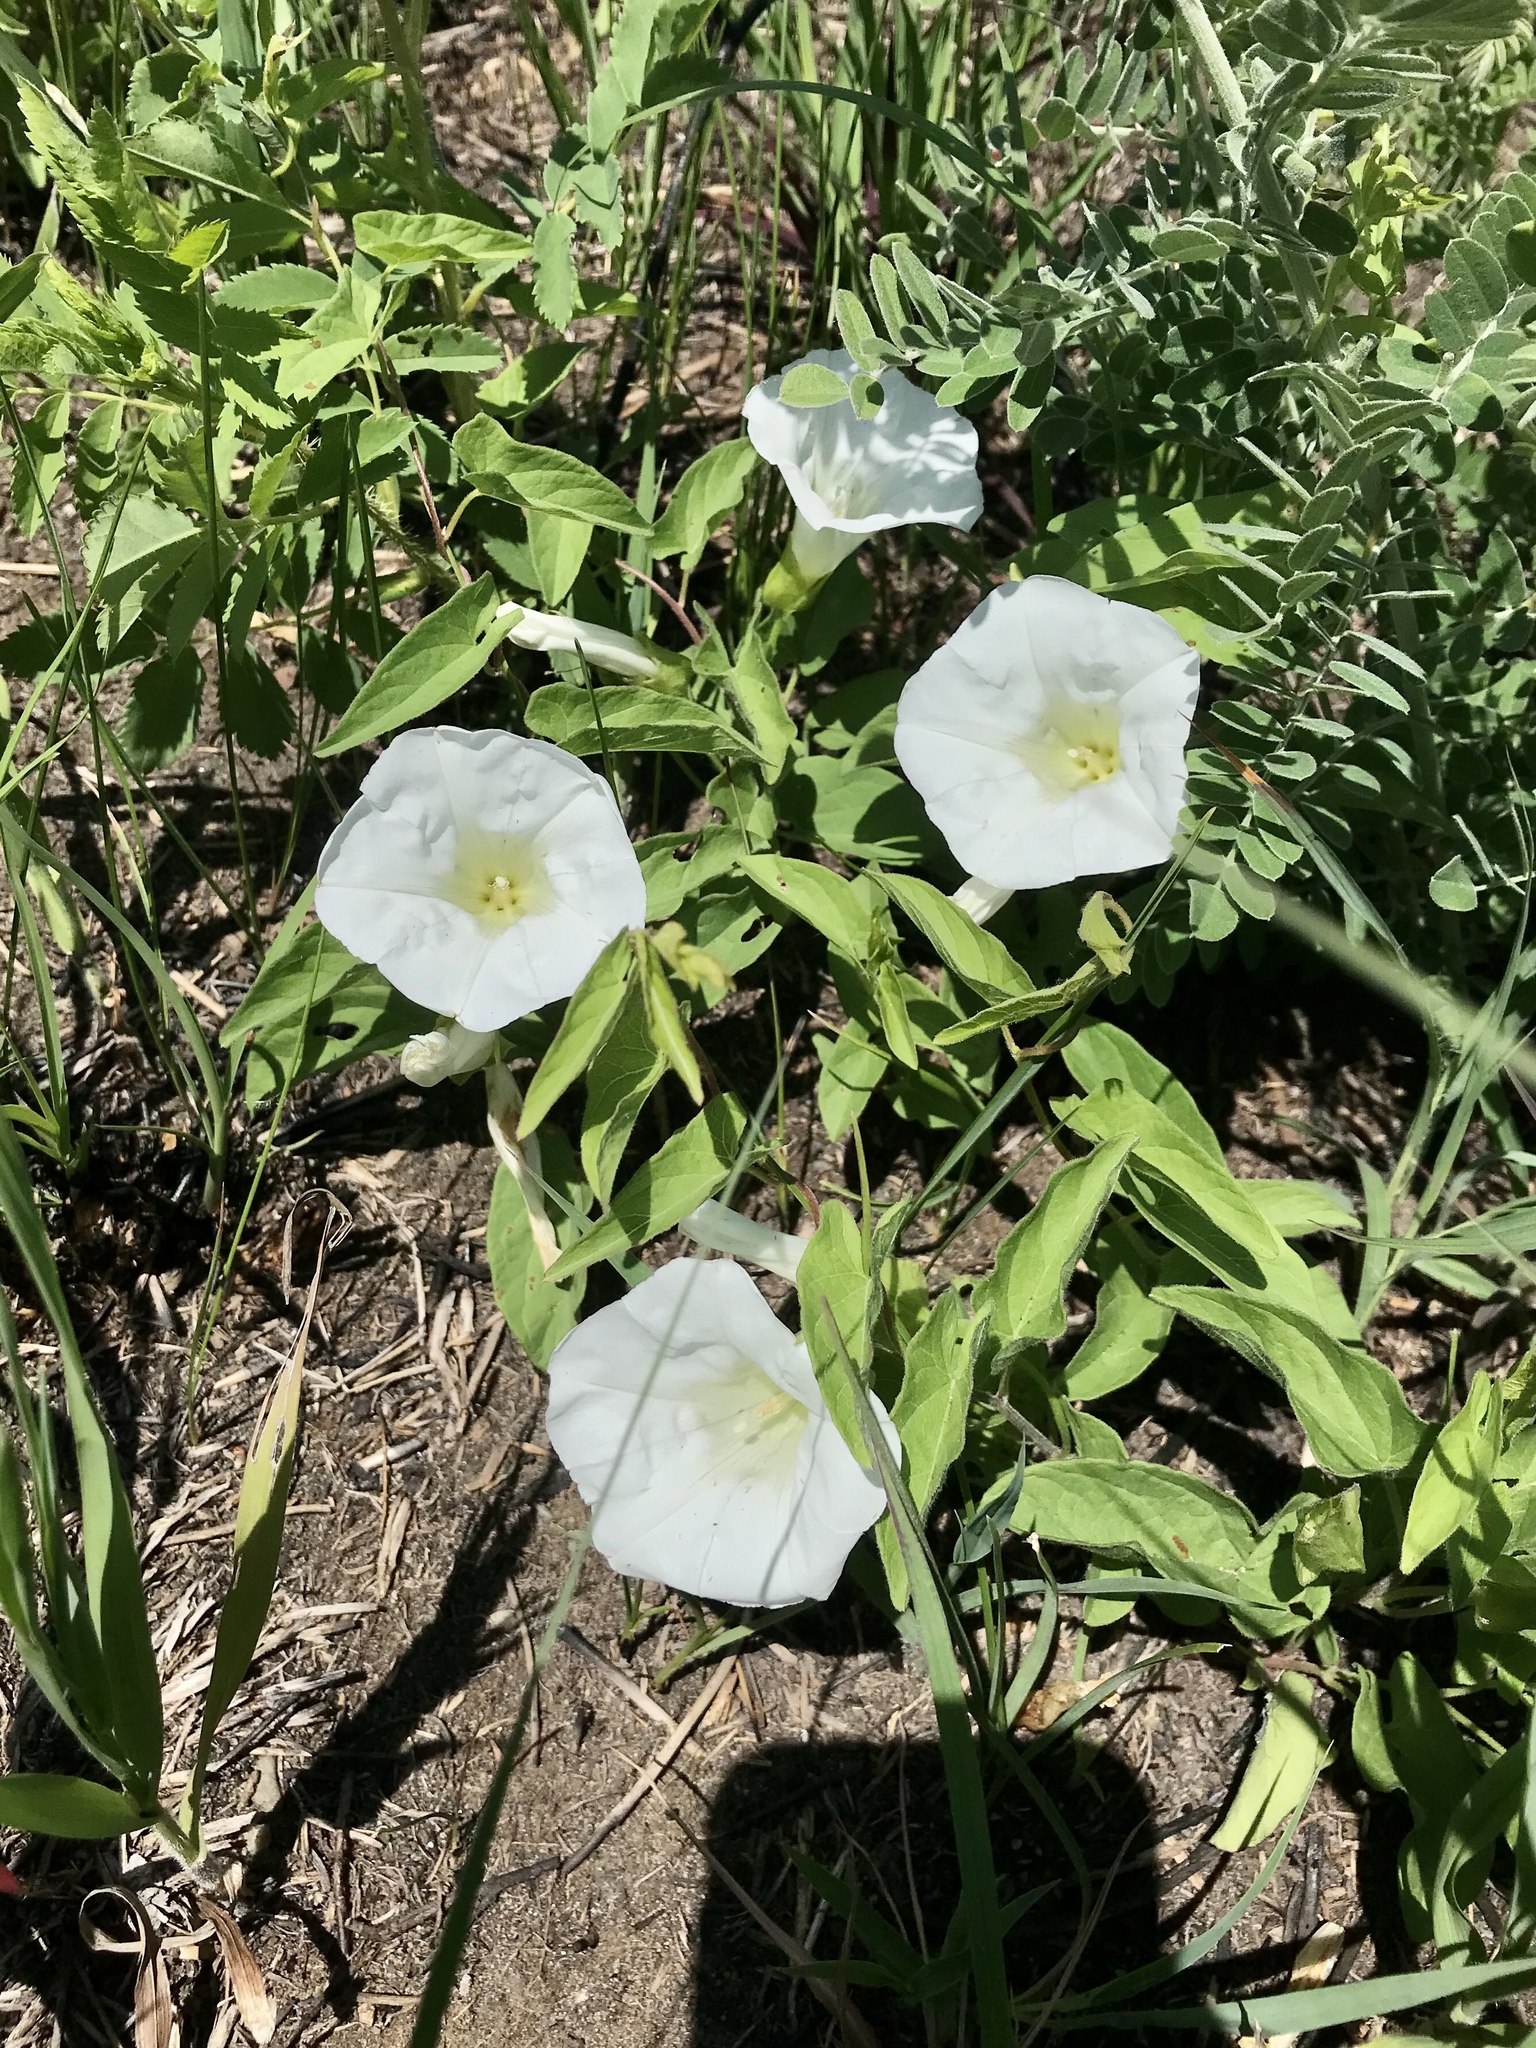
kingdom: Plantae
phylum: Tracheophyta
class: Magnoliopsida
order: Solanales
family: Convolvulaceae
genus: Calystegia
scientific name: Calystegia macounii
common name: Macoun's bindweed
